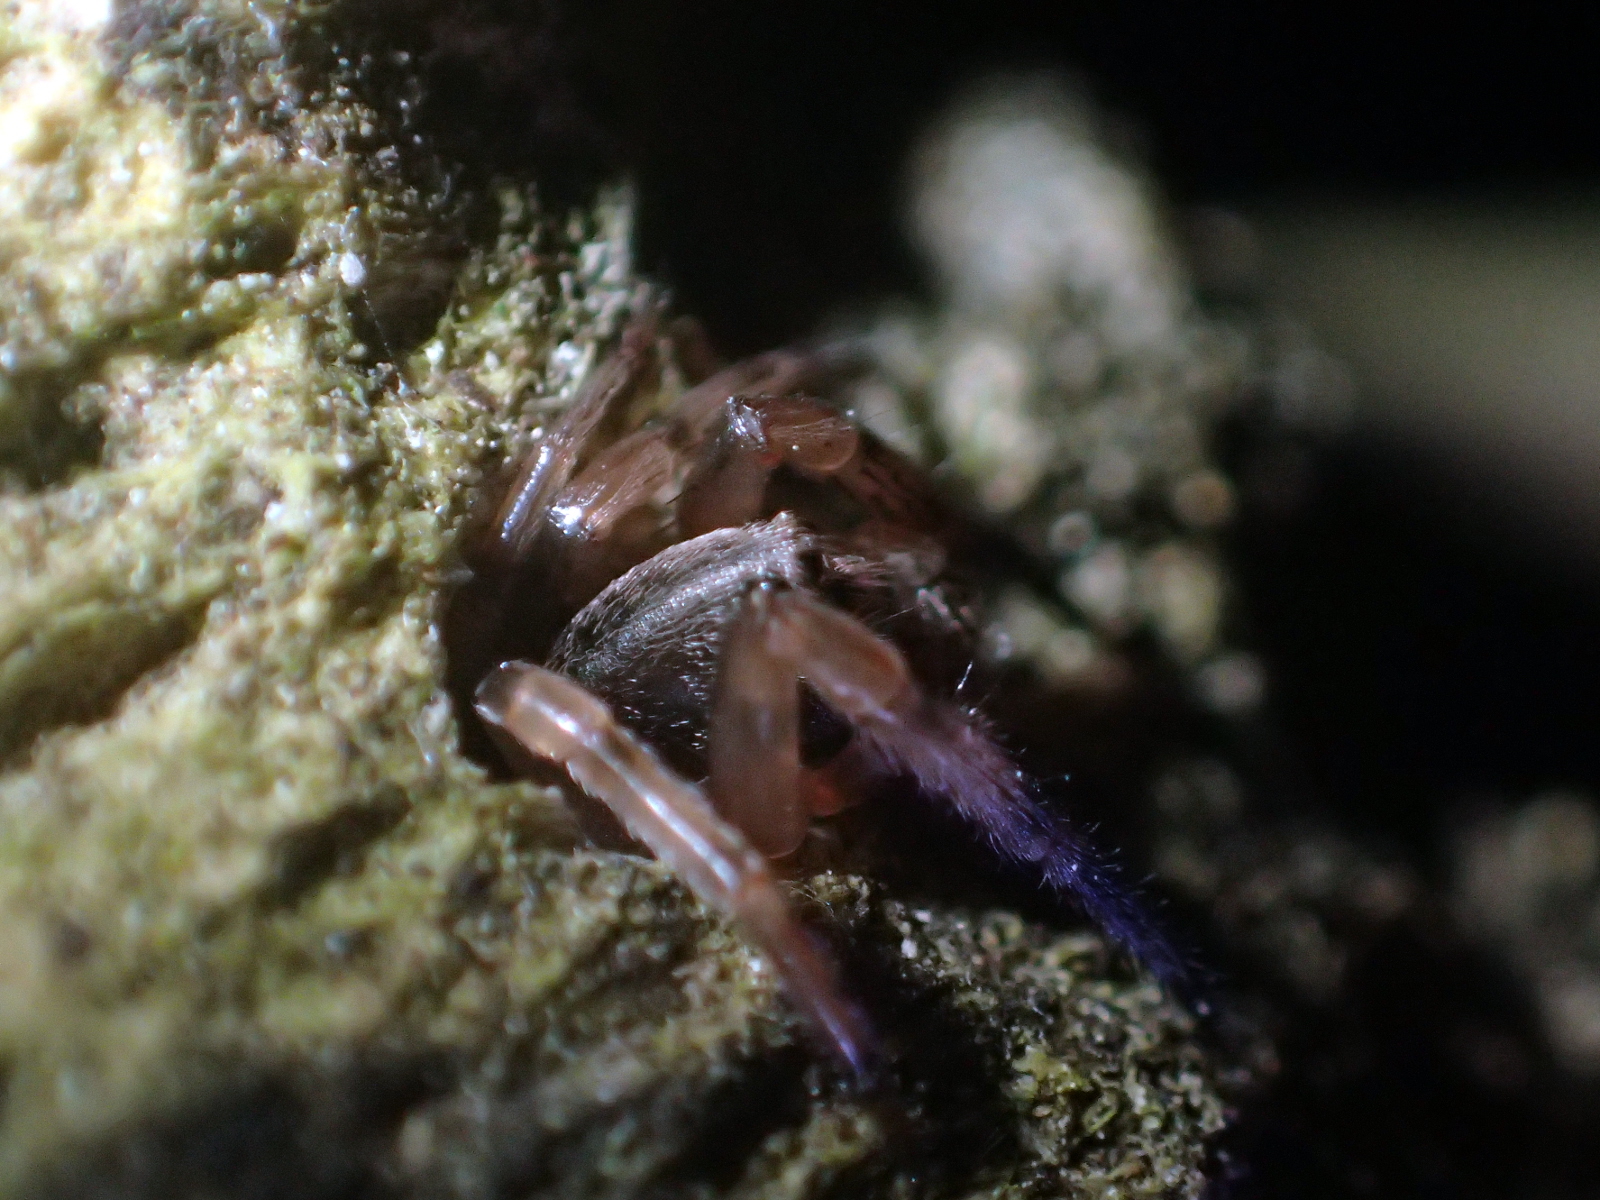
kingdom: Animalia
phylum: Arthropoda
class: Arachnida
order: Araneae
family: Cycloctenidae
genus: Plectophanes
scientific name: Plectophanes
